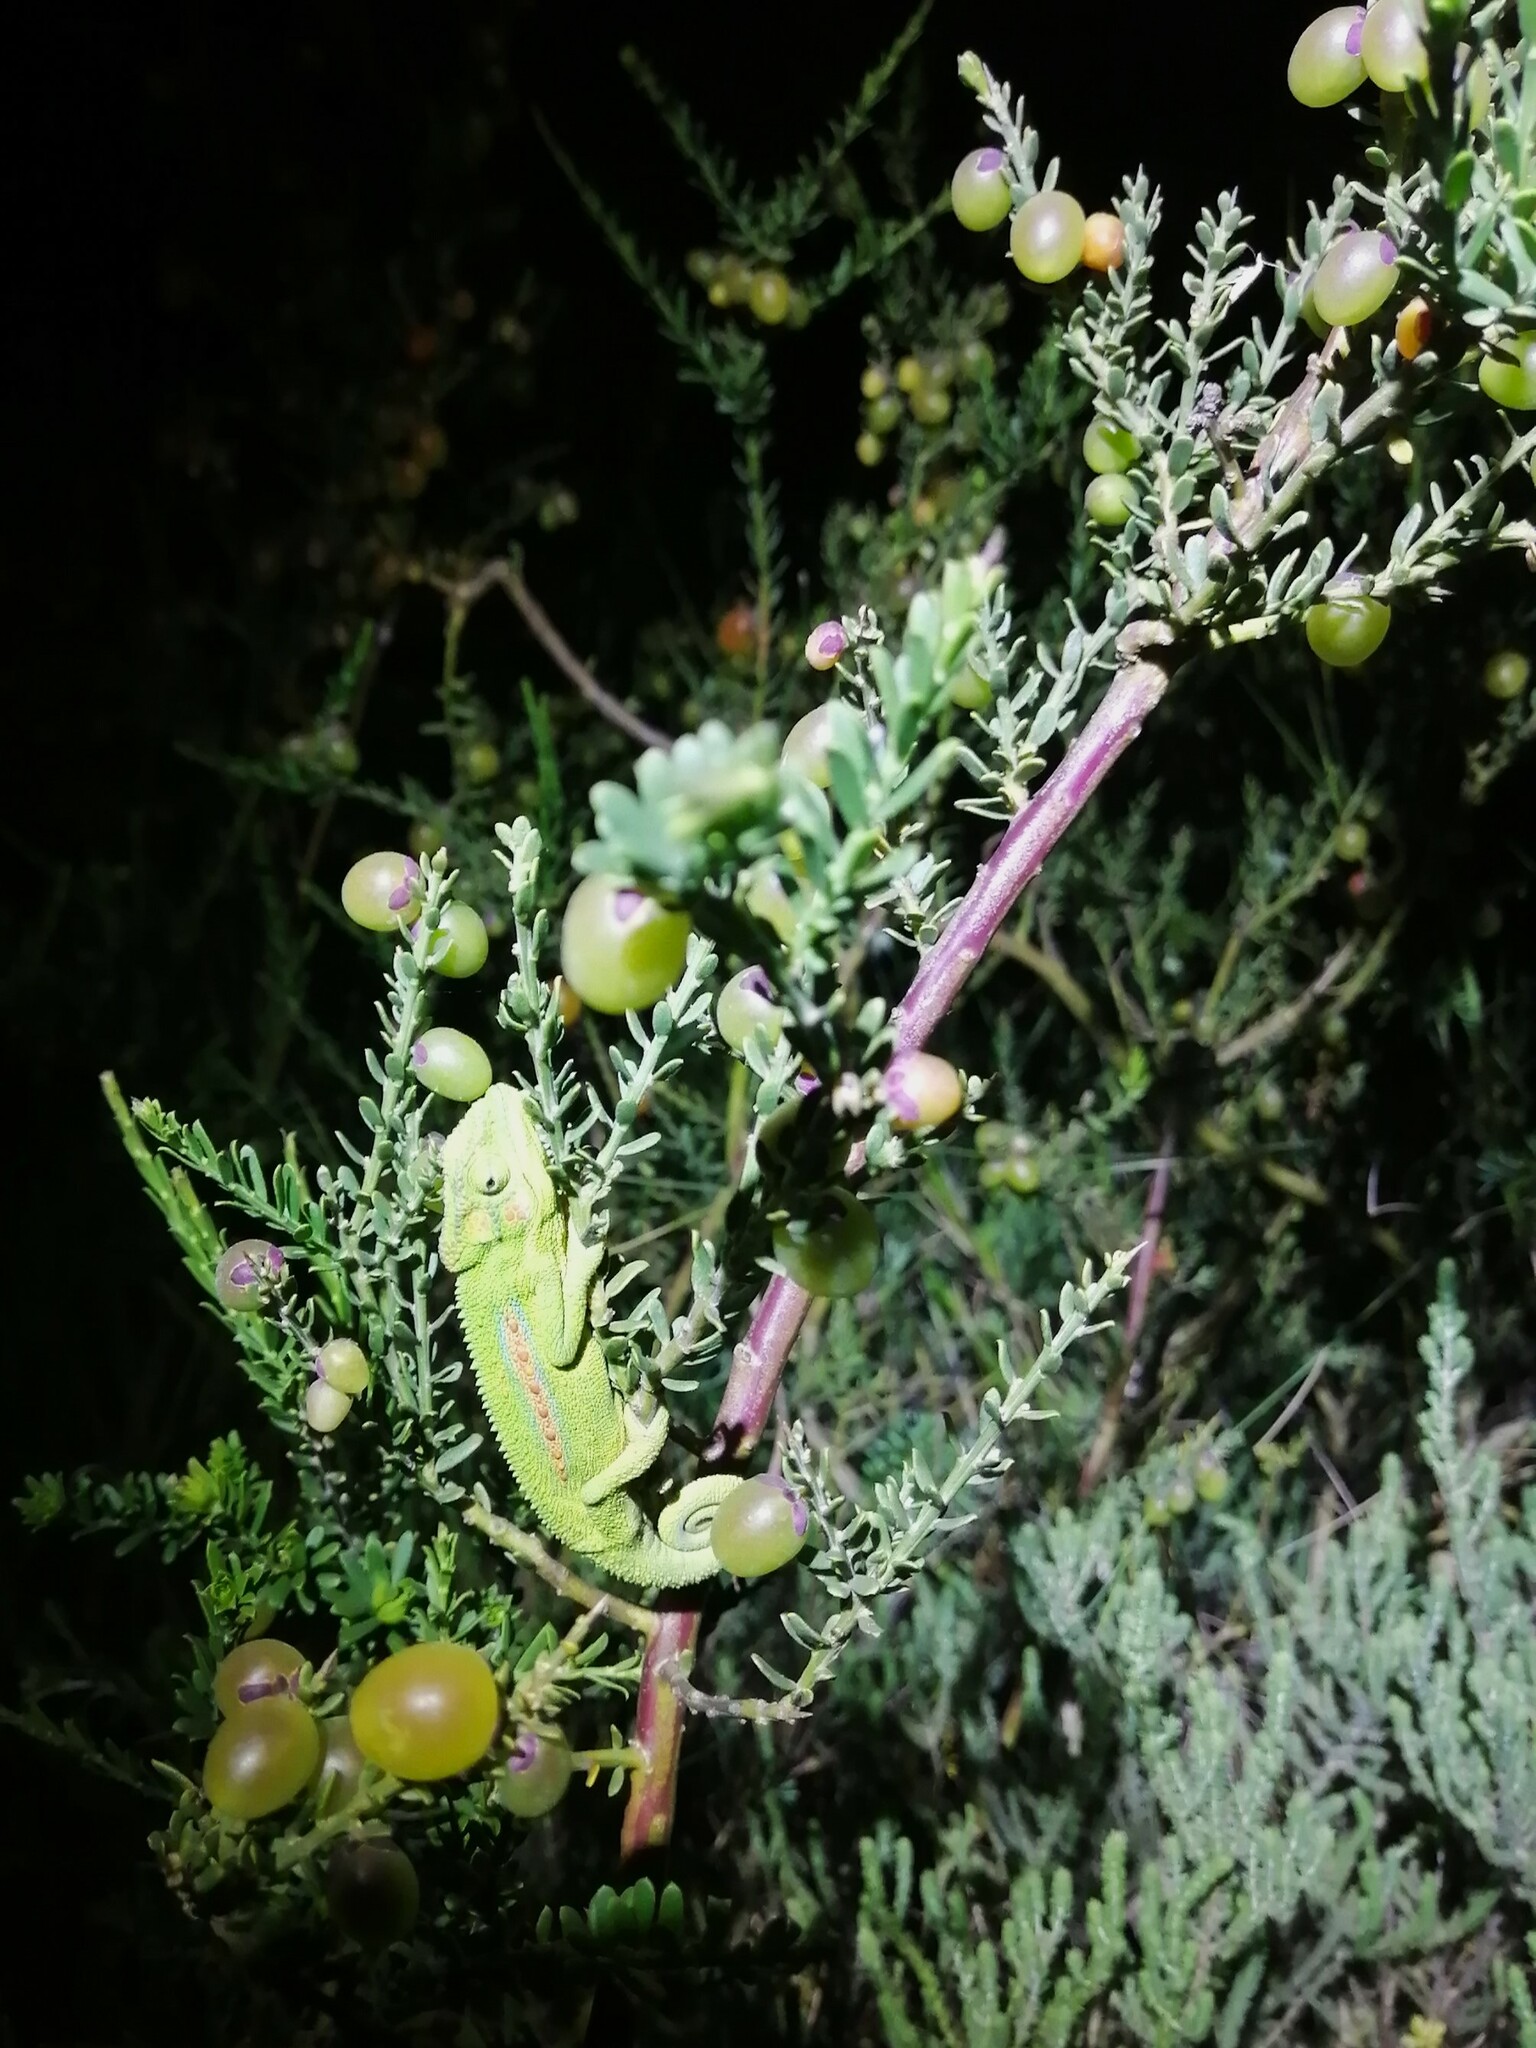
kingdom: Animalia
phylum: Chordata
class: Squamata
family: Chamaeleonidae
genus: Bradypodion
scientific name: Bradypodion pumilum
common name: Cape dwarf chameleon
